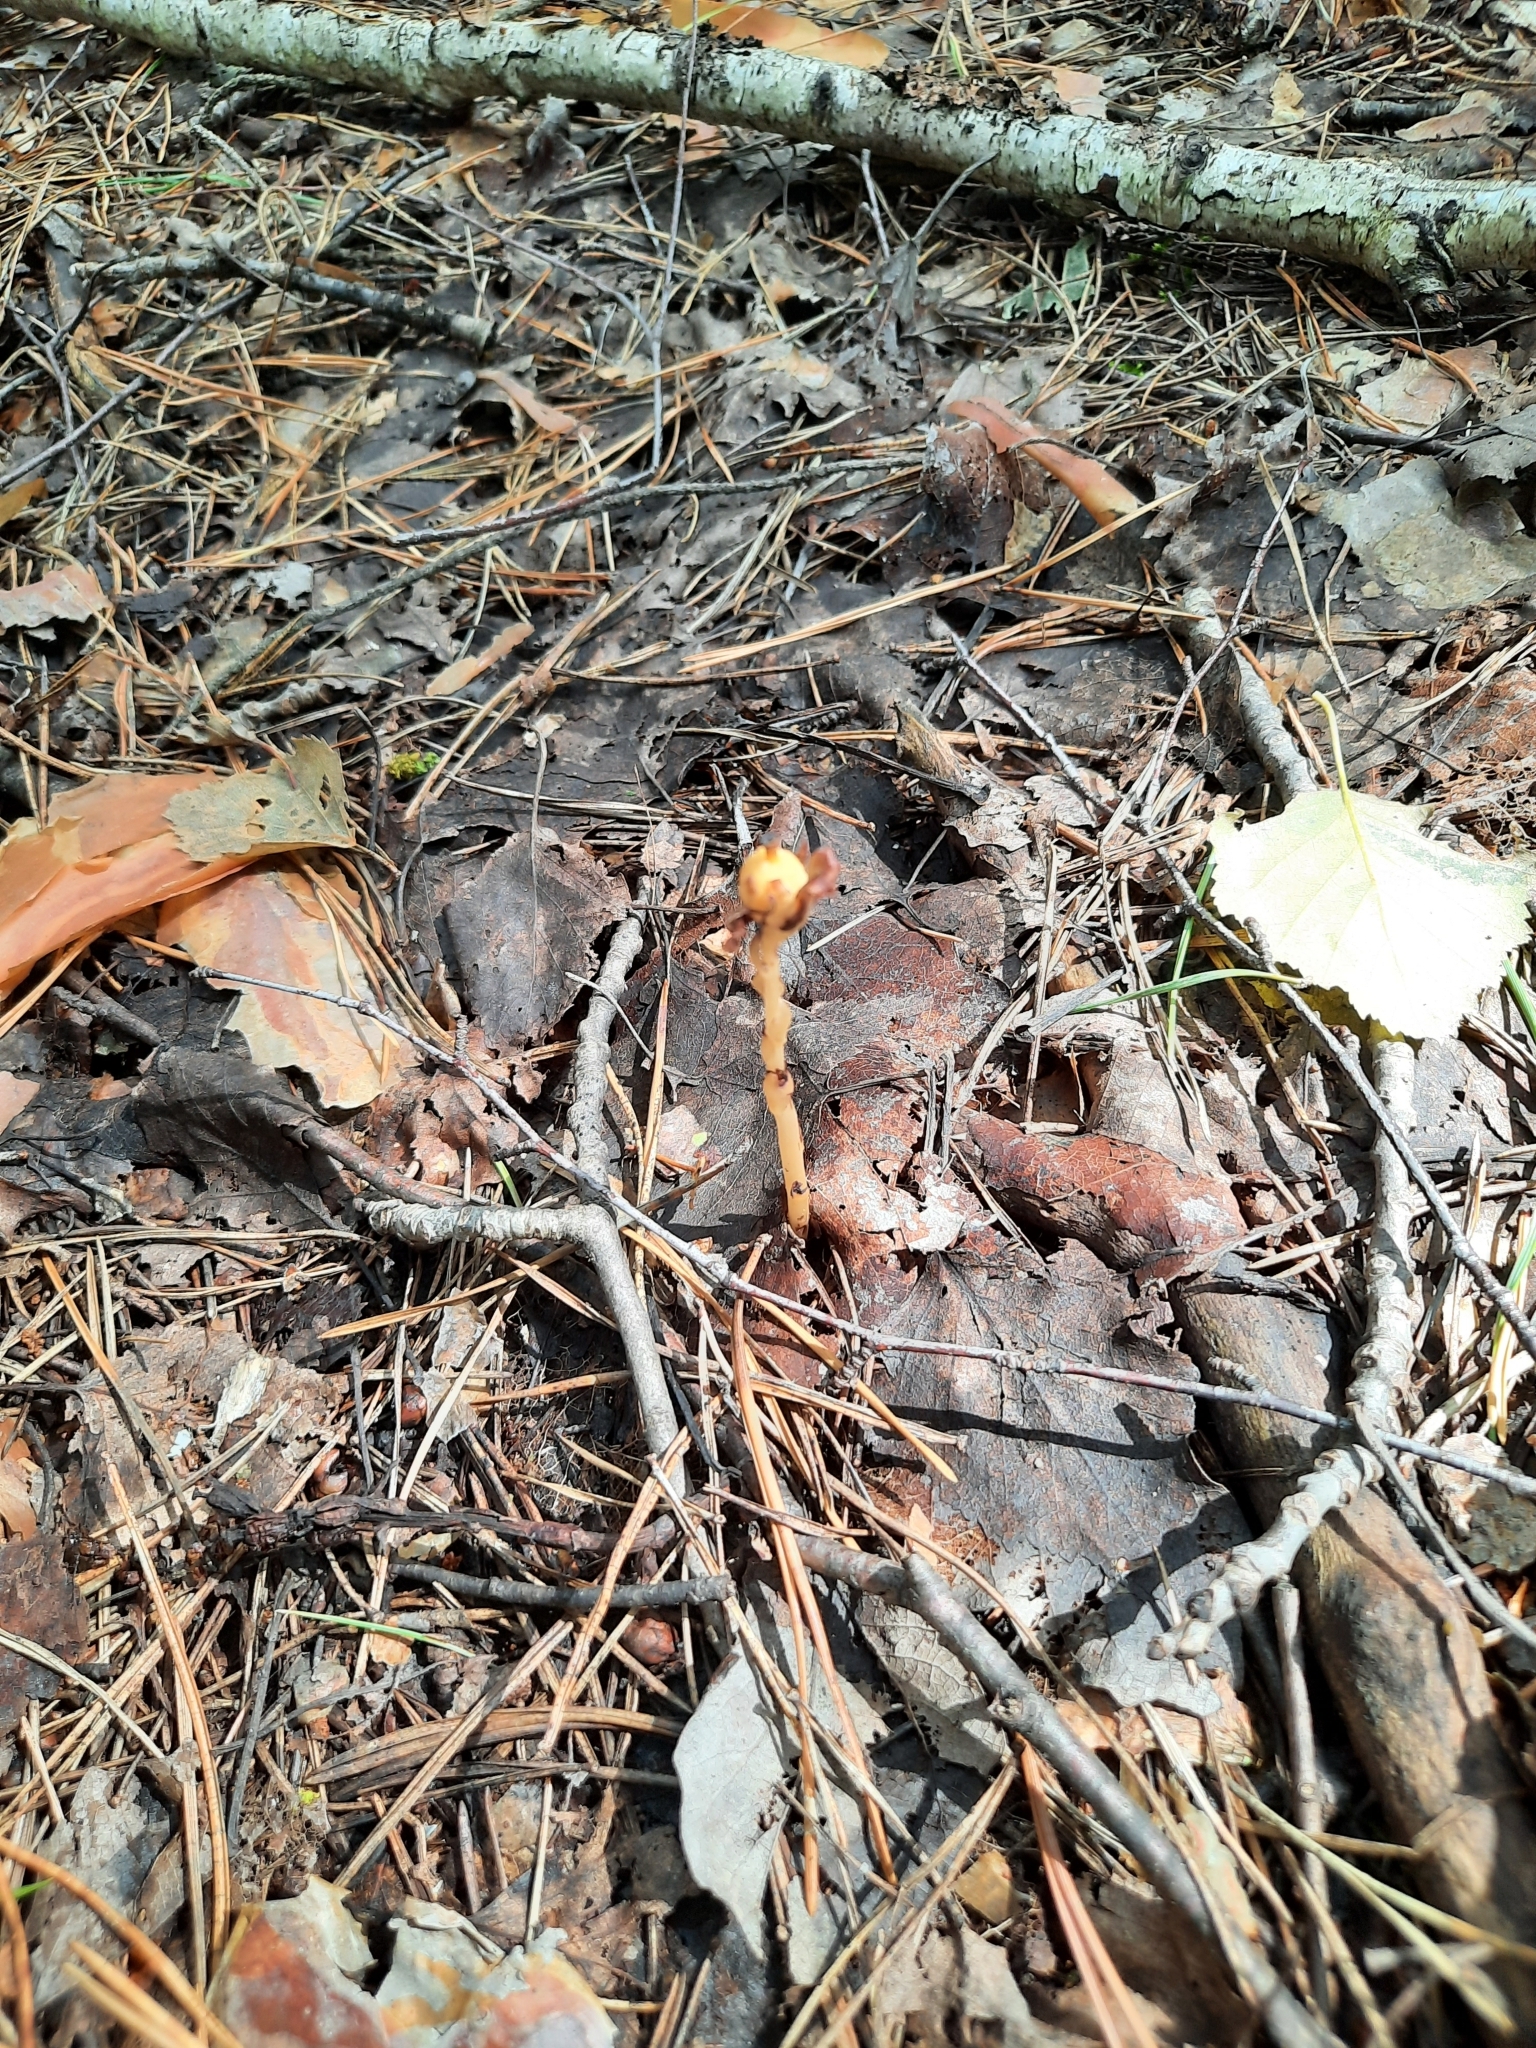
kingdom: Plantae
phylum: Tracheophyta
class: Magnoliopsida
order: Ericales
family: Ericaceae
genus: Hypopitys
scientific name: Hypopitys monotropa
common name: Yellow bird's-nest
